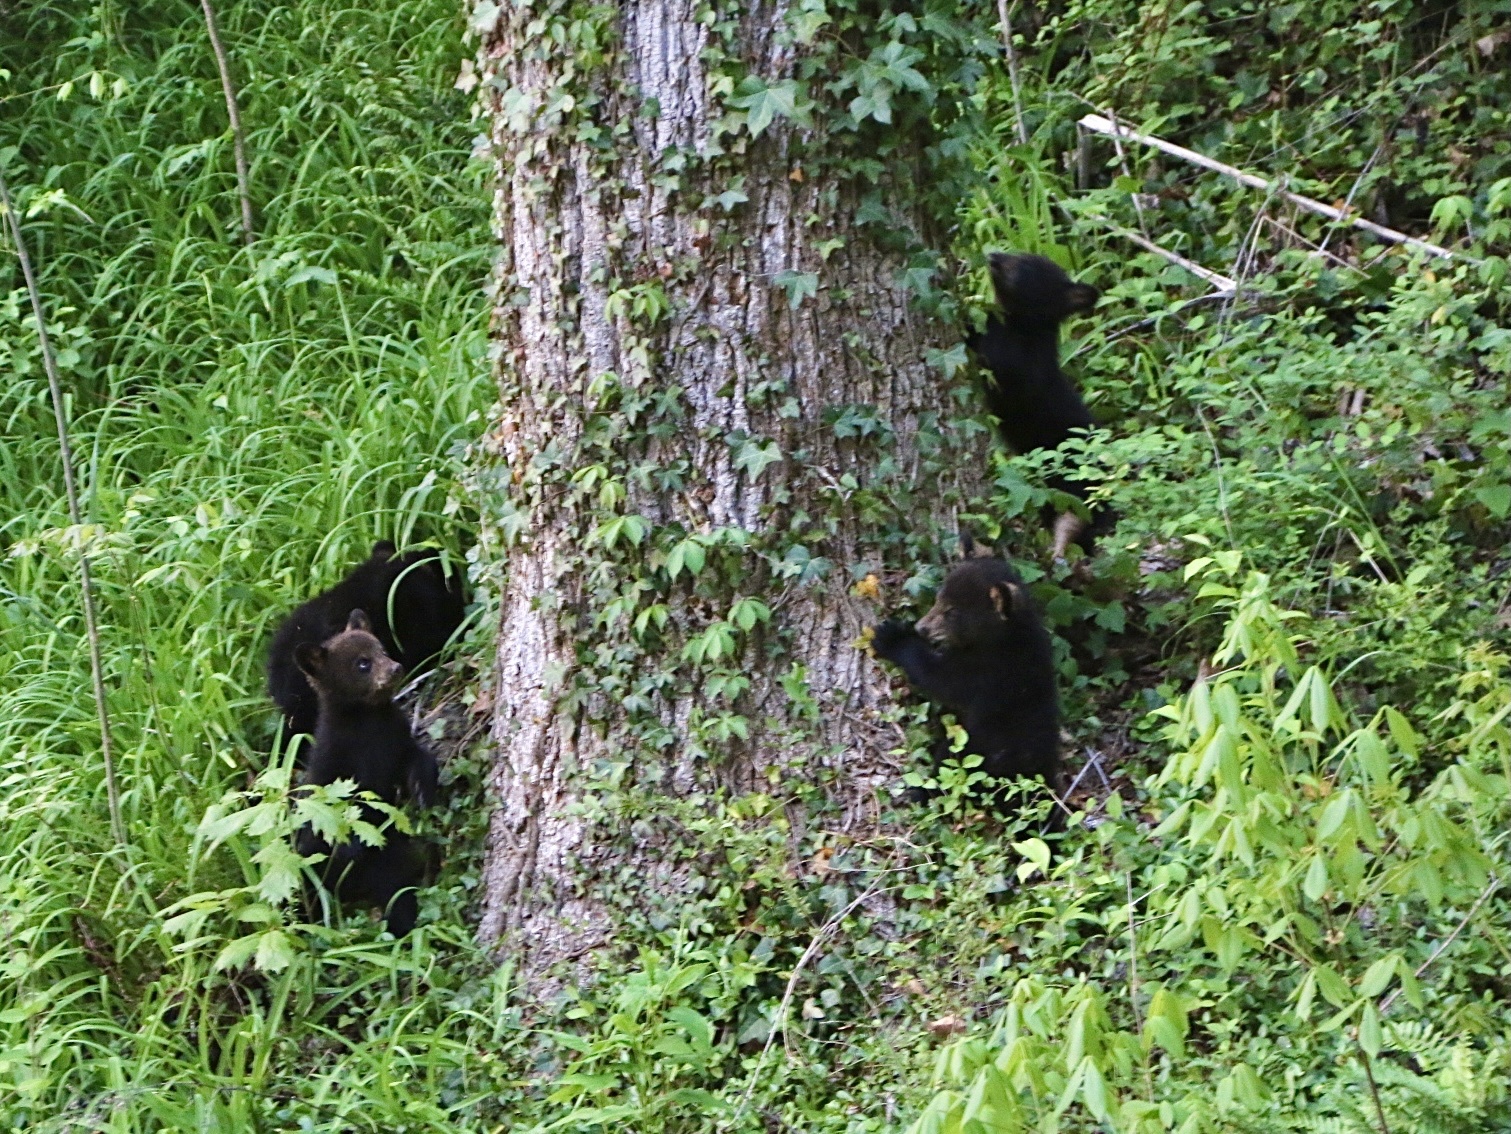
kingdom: Animalia
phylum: Chordata
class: Mammalia
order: Carnivora
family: Ursidae
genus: Ursus
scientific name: Ursus americanus
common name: American black bear
